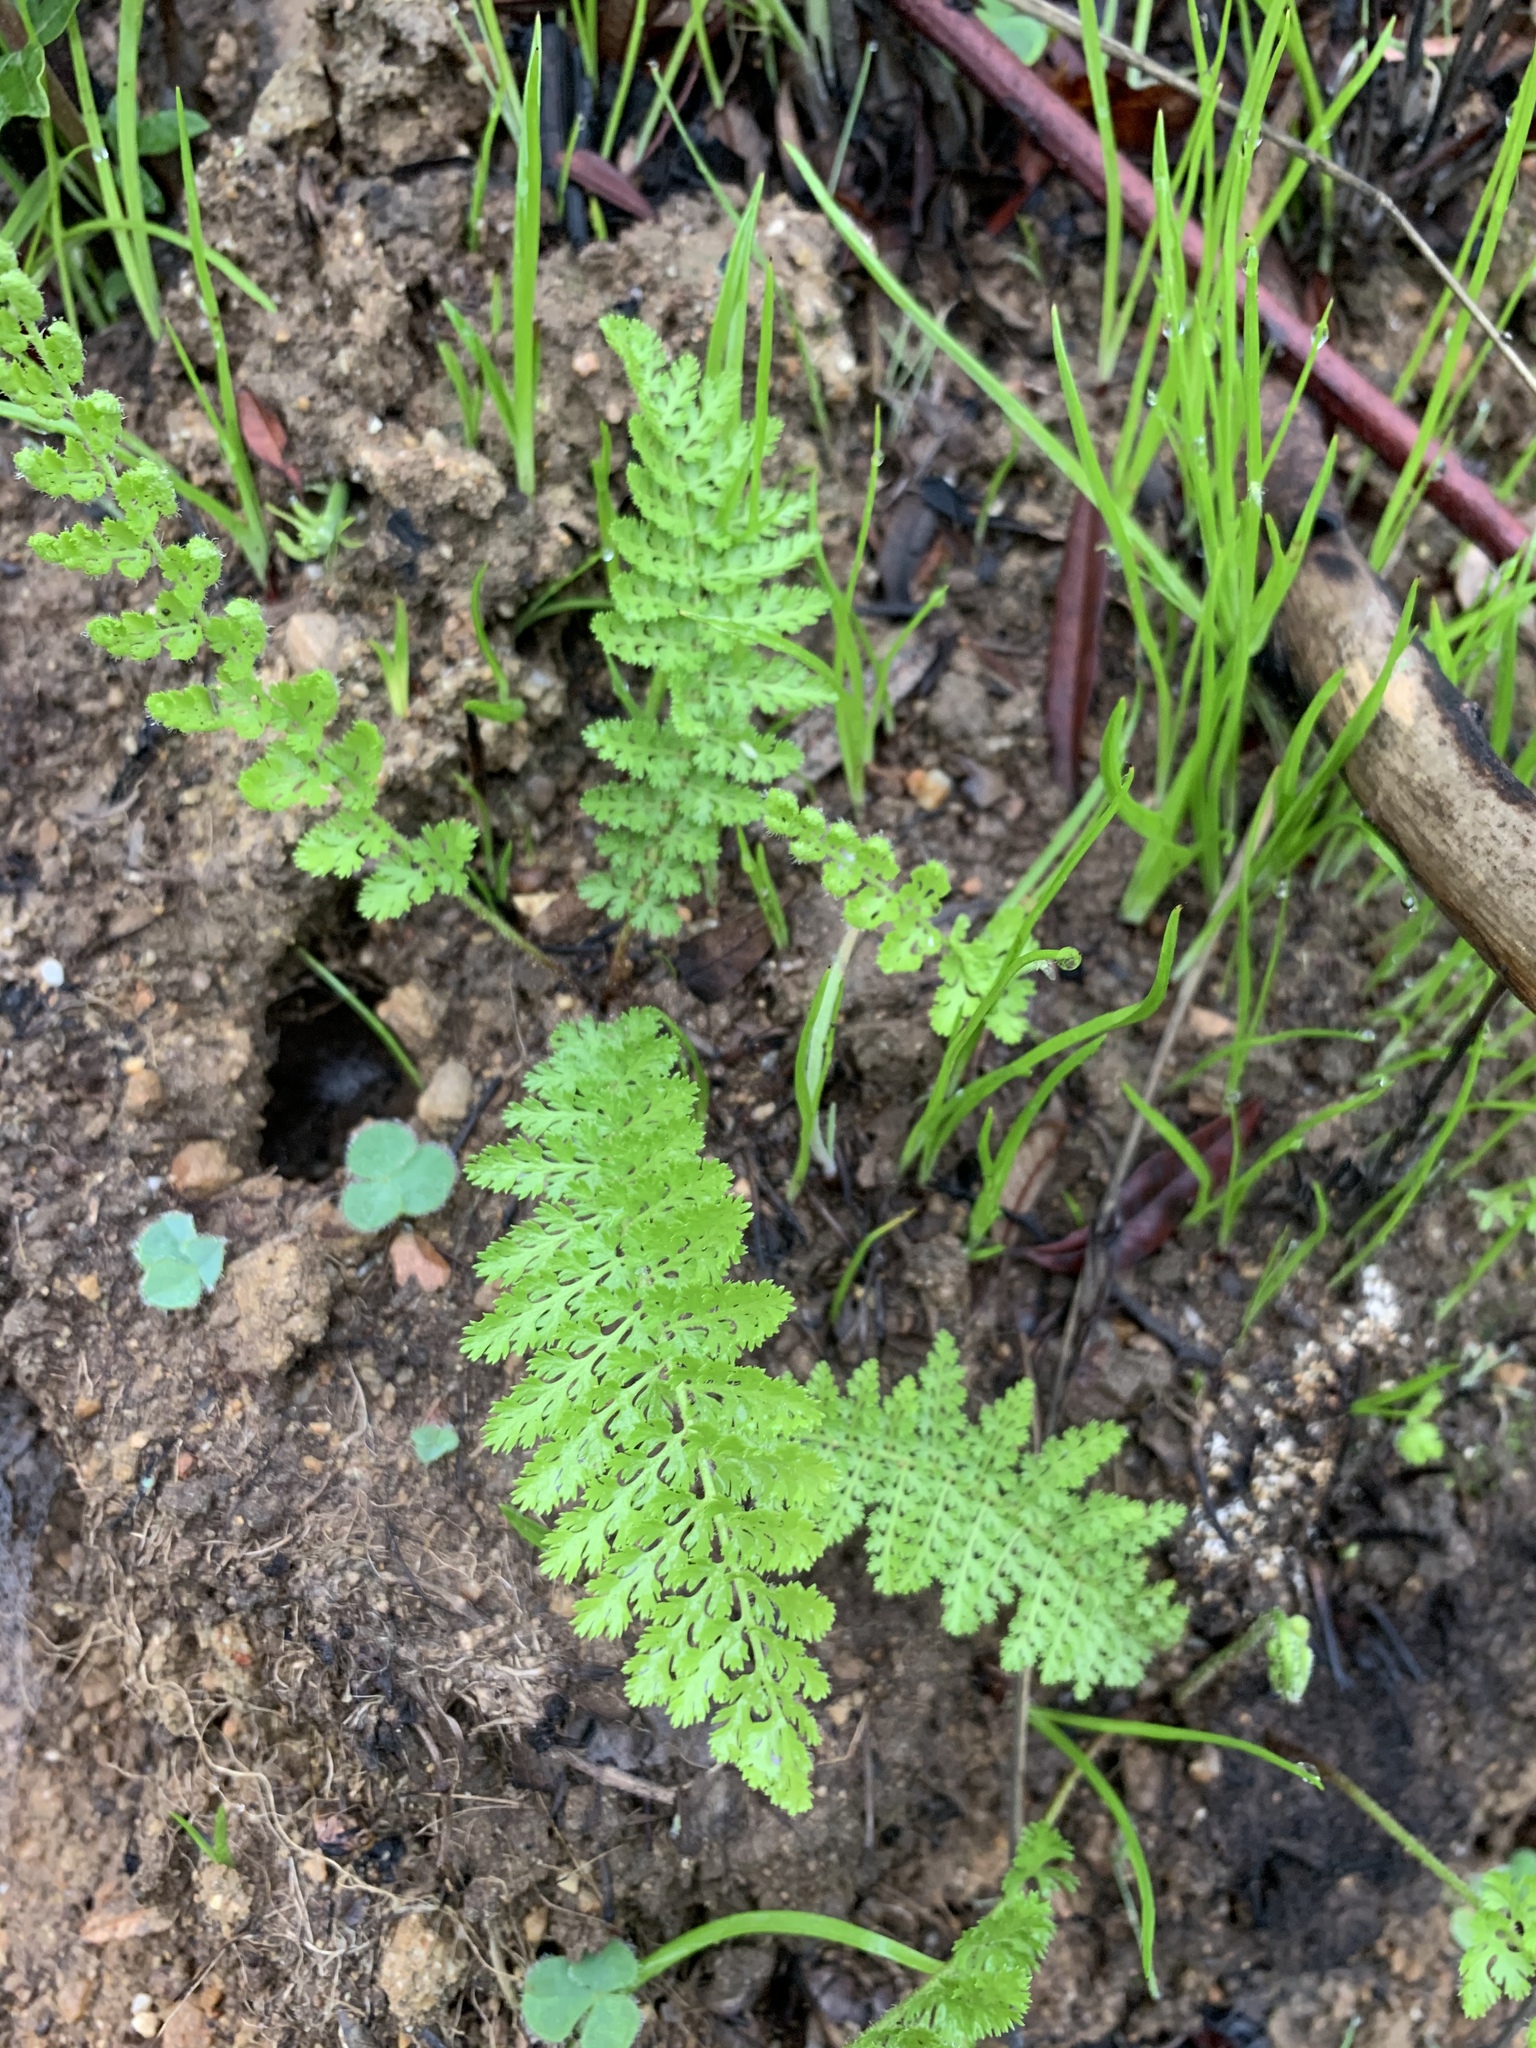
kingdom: Plantae
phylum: Tracheophyta
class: Polypodiopsida
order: Schizaeales
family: Anemiaceae
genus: Anemia
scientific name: Anemia caffrorum
